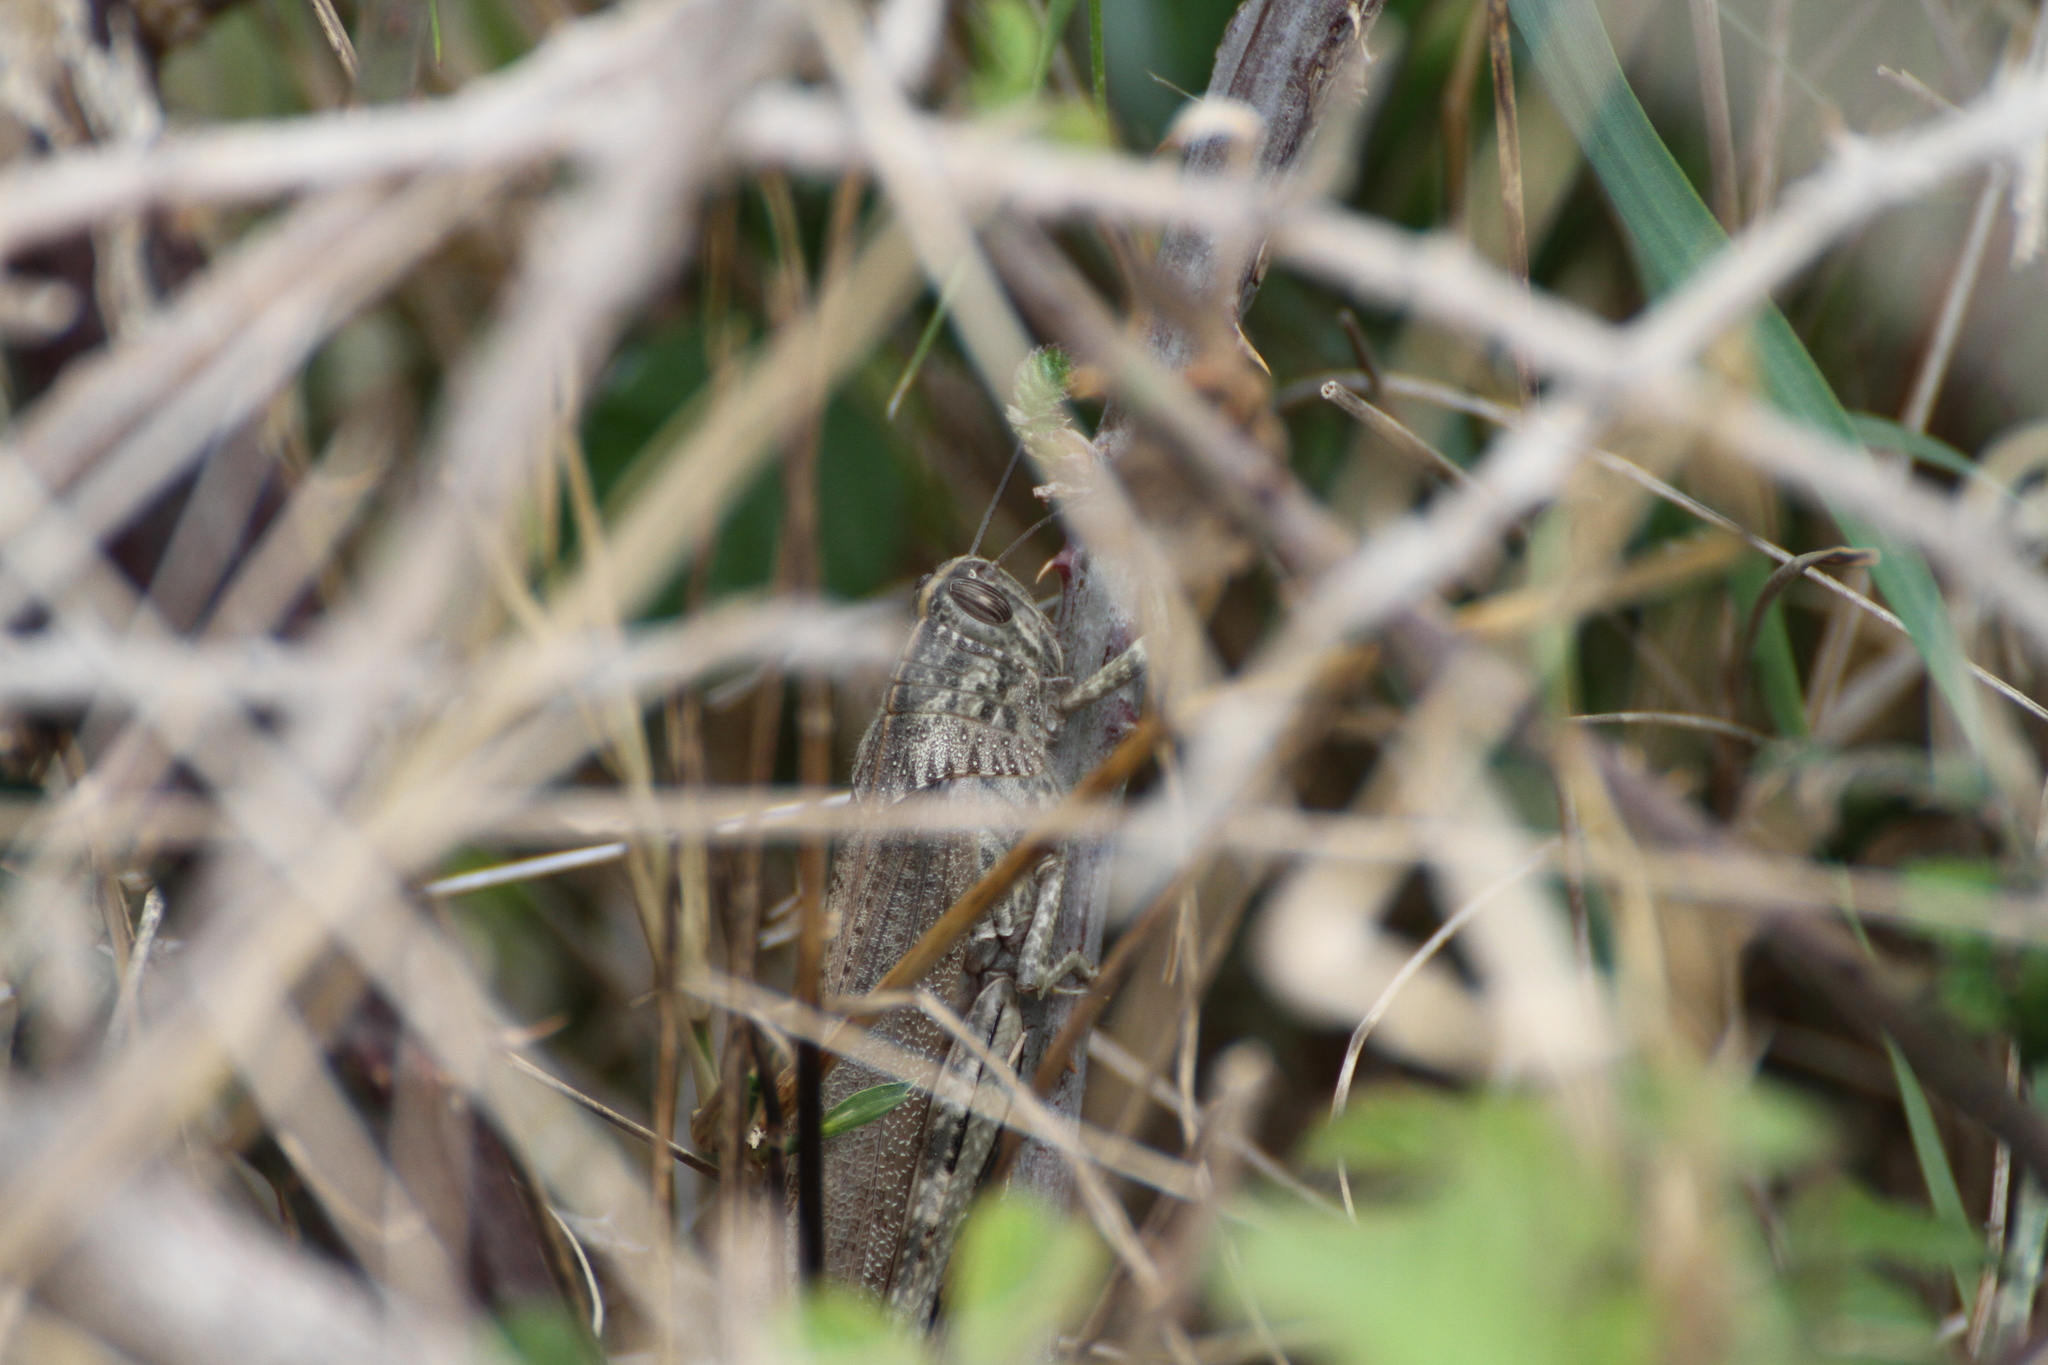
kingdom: Animalia
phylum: Arthropoda
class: Insecta
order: Orthoptera
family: Acrididae
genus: Anacridium
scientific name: Anacridium aegyptium
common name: Egyptian grasshopper
